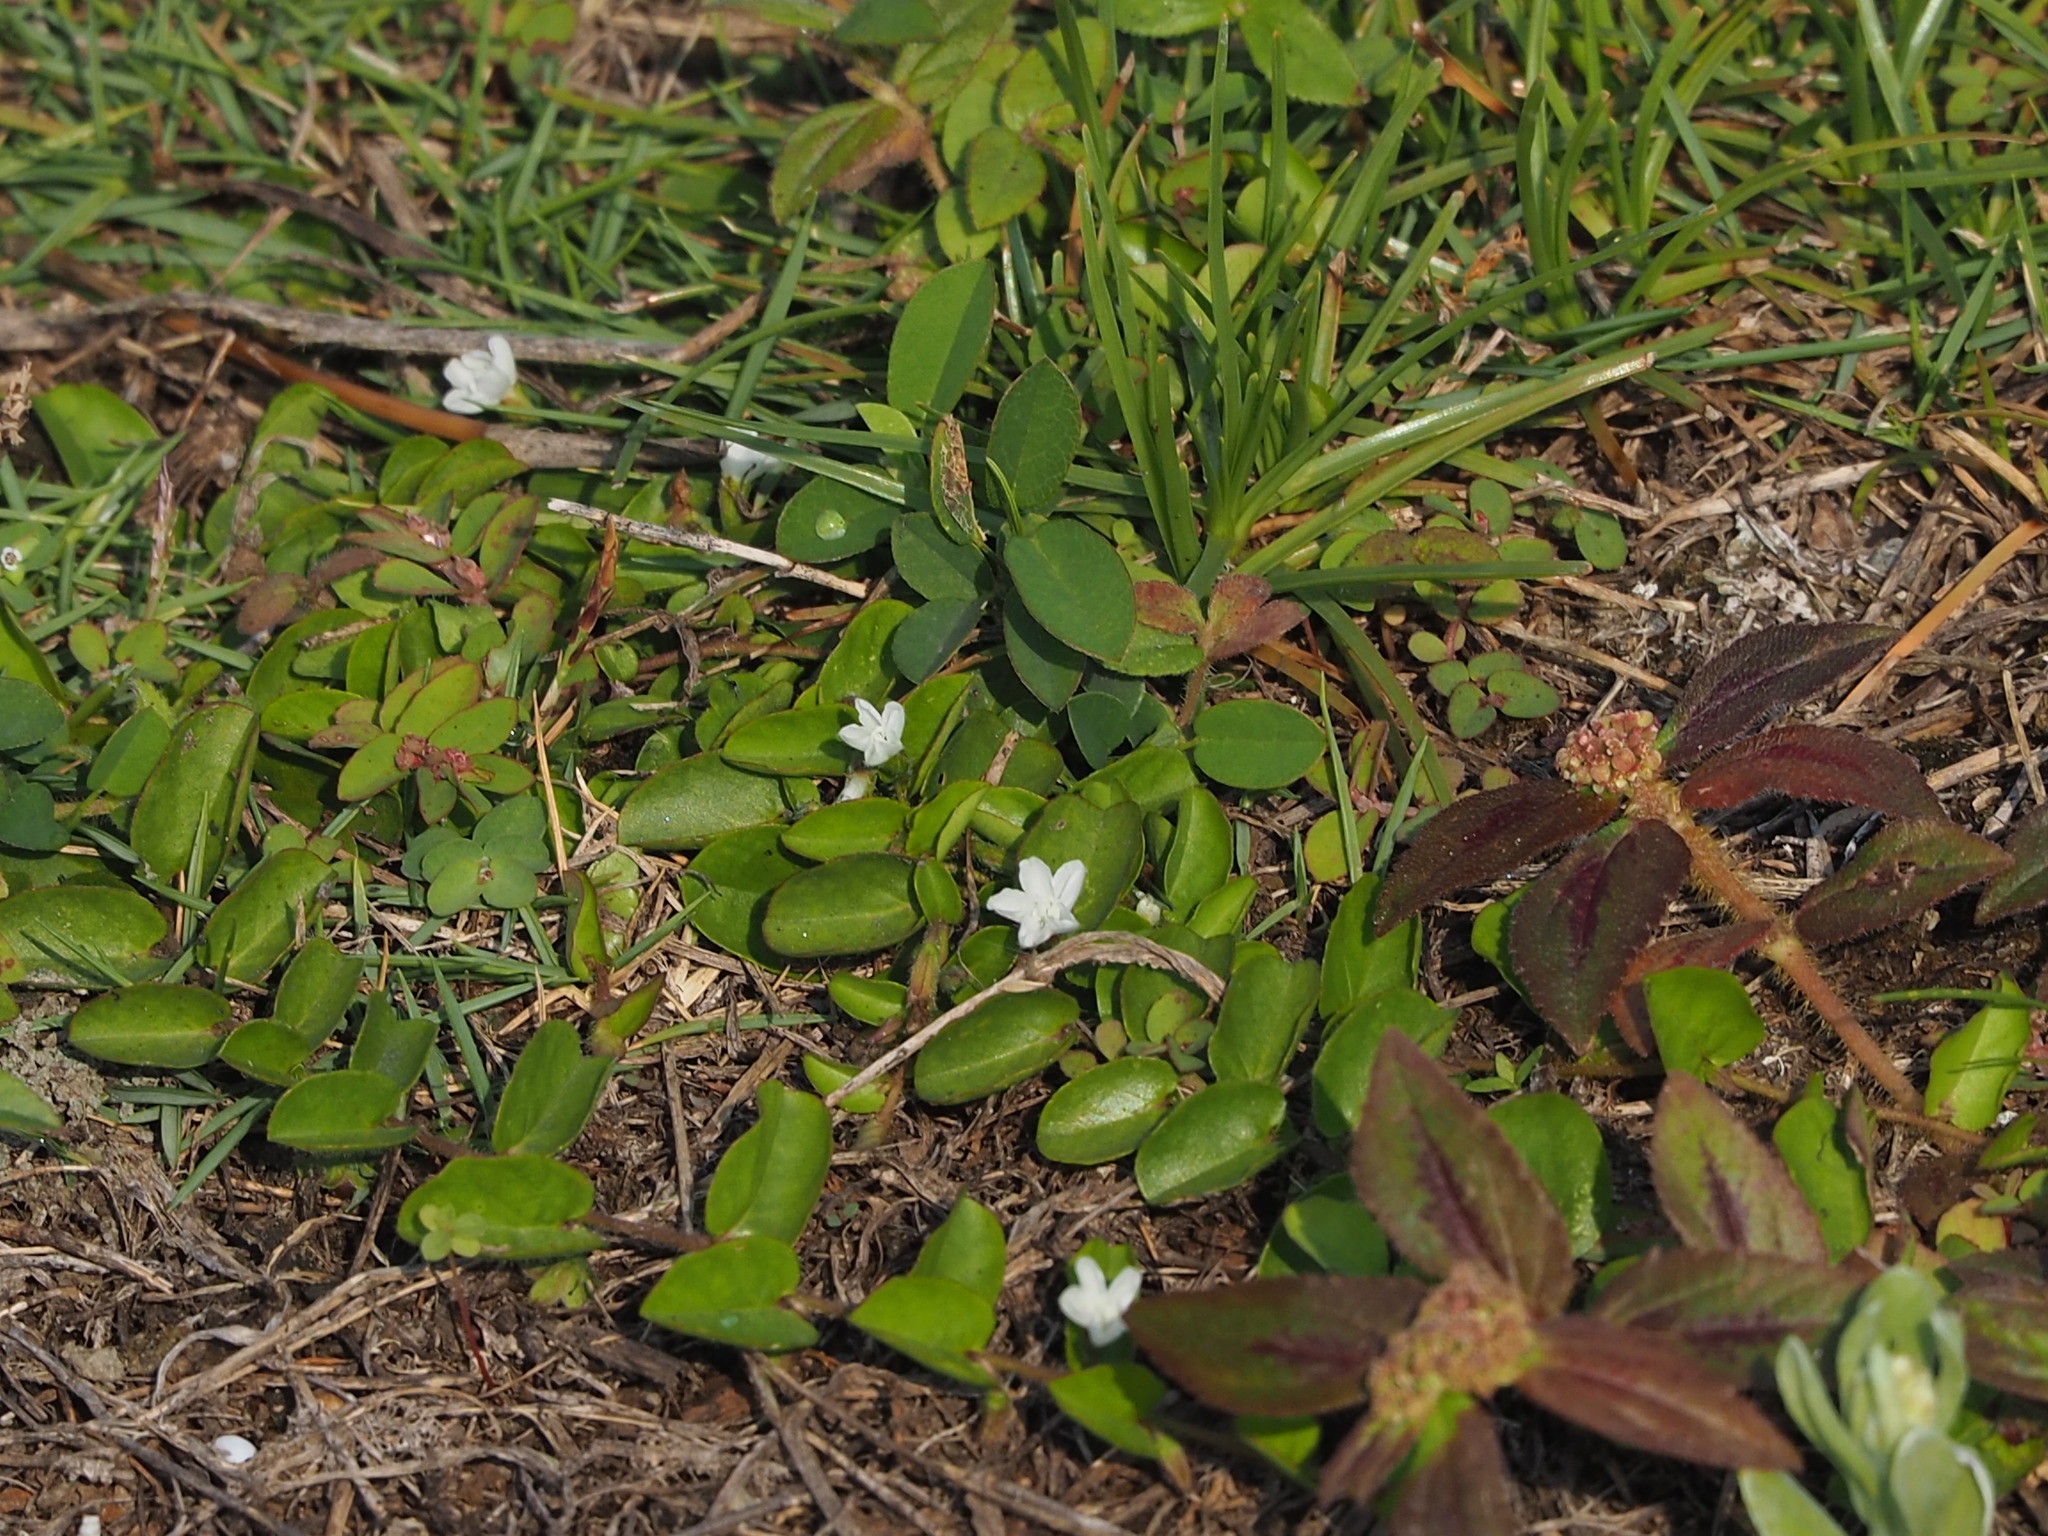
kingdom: Plantae
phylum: Tracheophyta
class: Magnoliopsida
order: Solanales
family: Convolvulaceae
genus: Evolvulus
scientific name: Evolvulus nummularius
